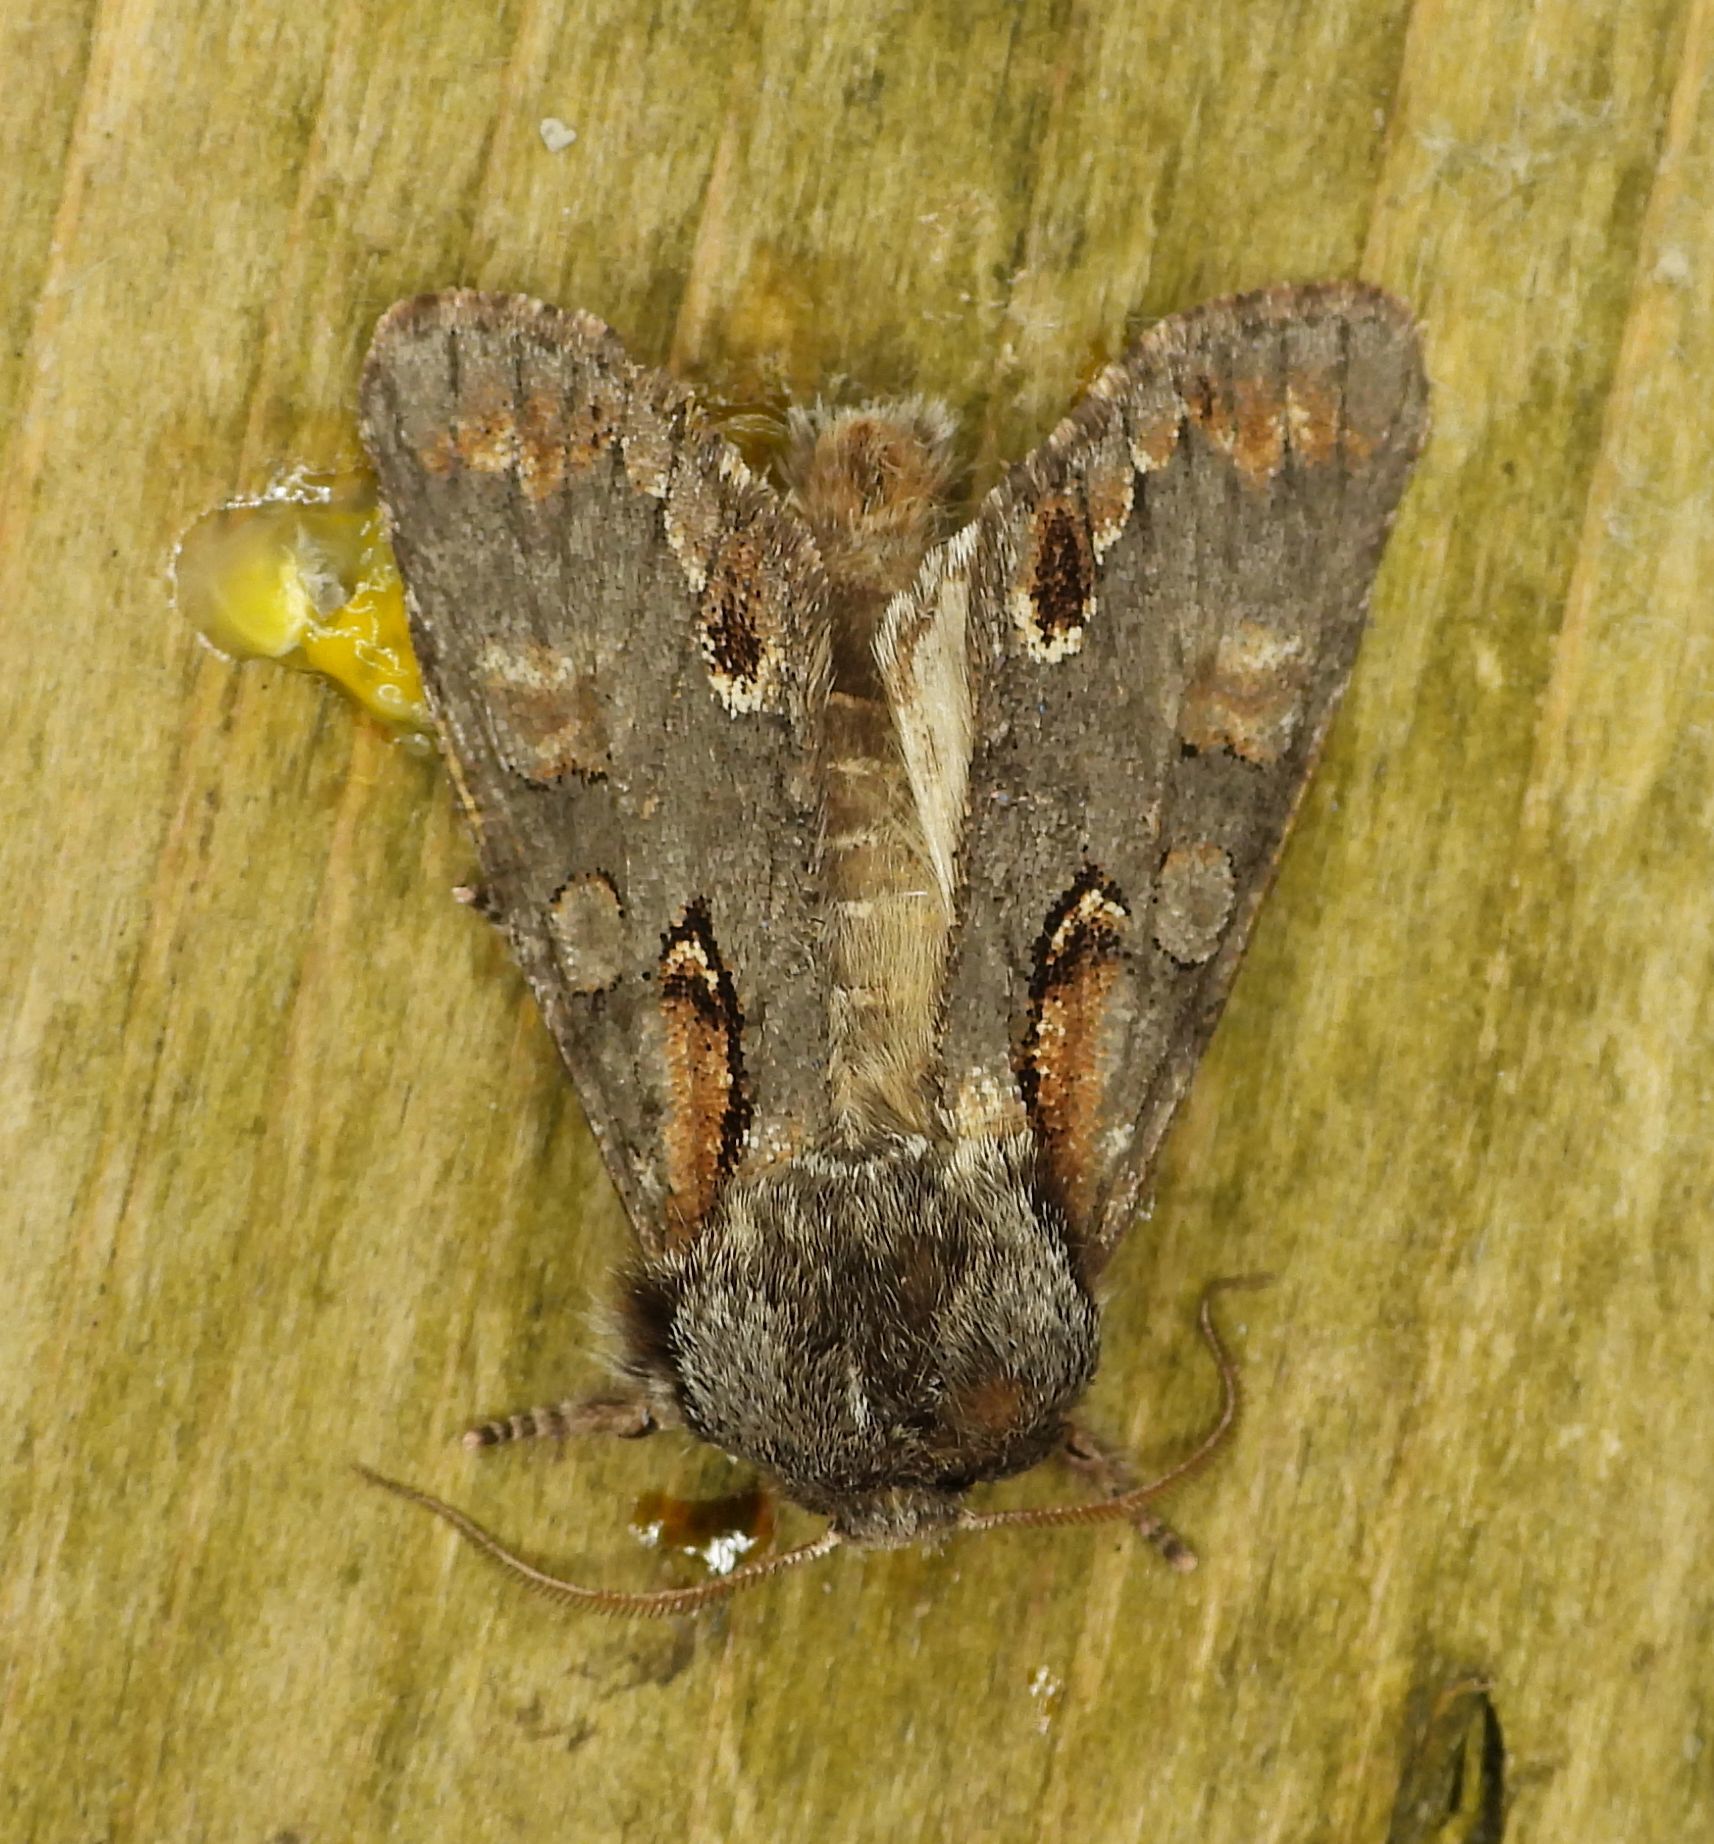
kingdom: Animalia
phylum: Arthropoda
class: Insecta
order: Lepidoptera
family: Noctuidae
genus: Psaphida
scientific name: Psaphida electilis
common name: Chosen sallow
